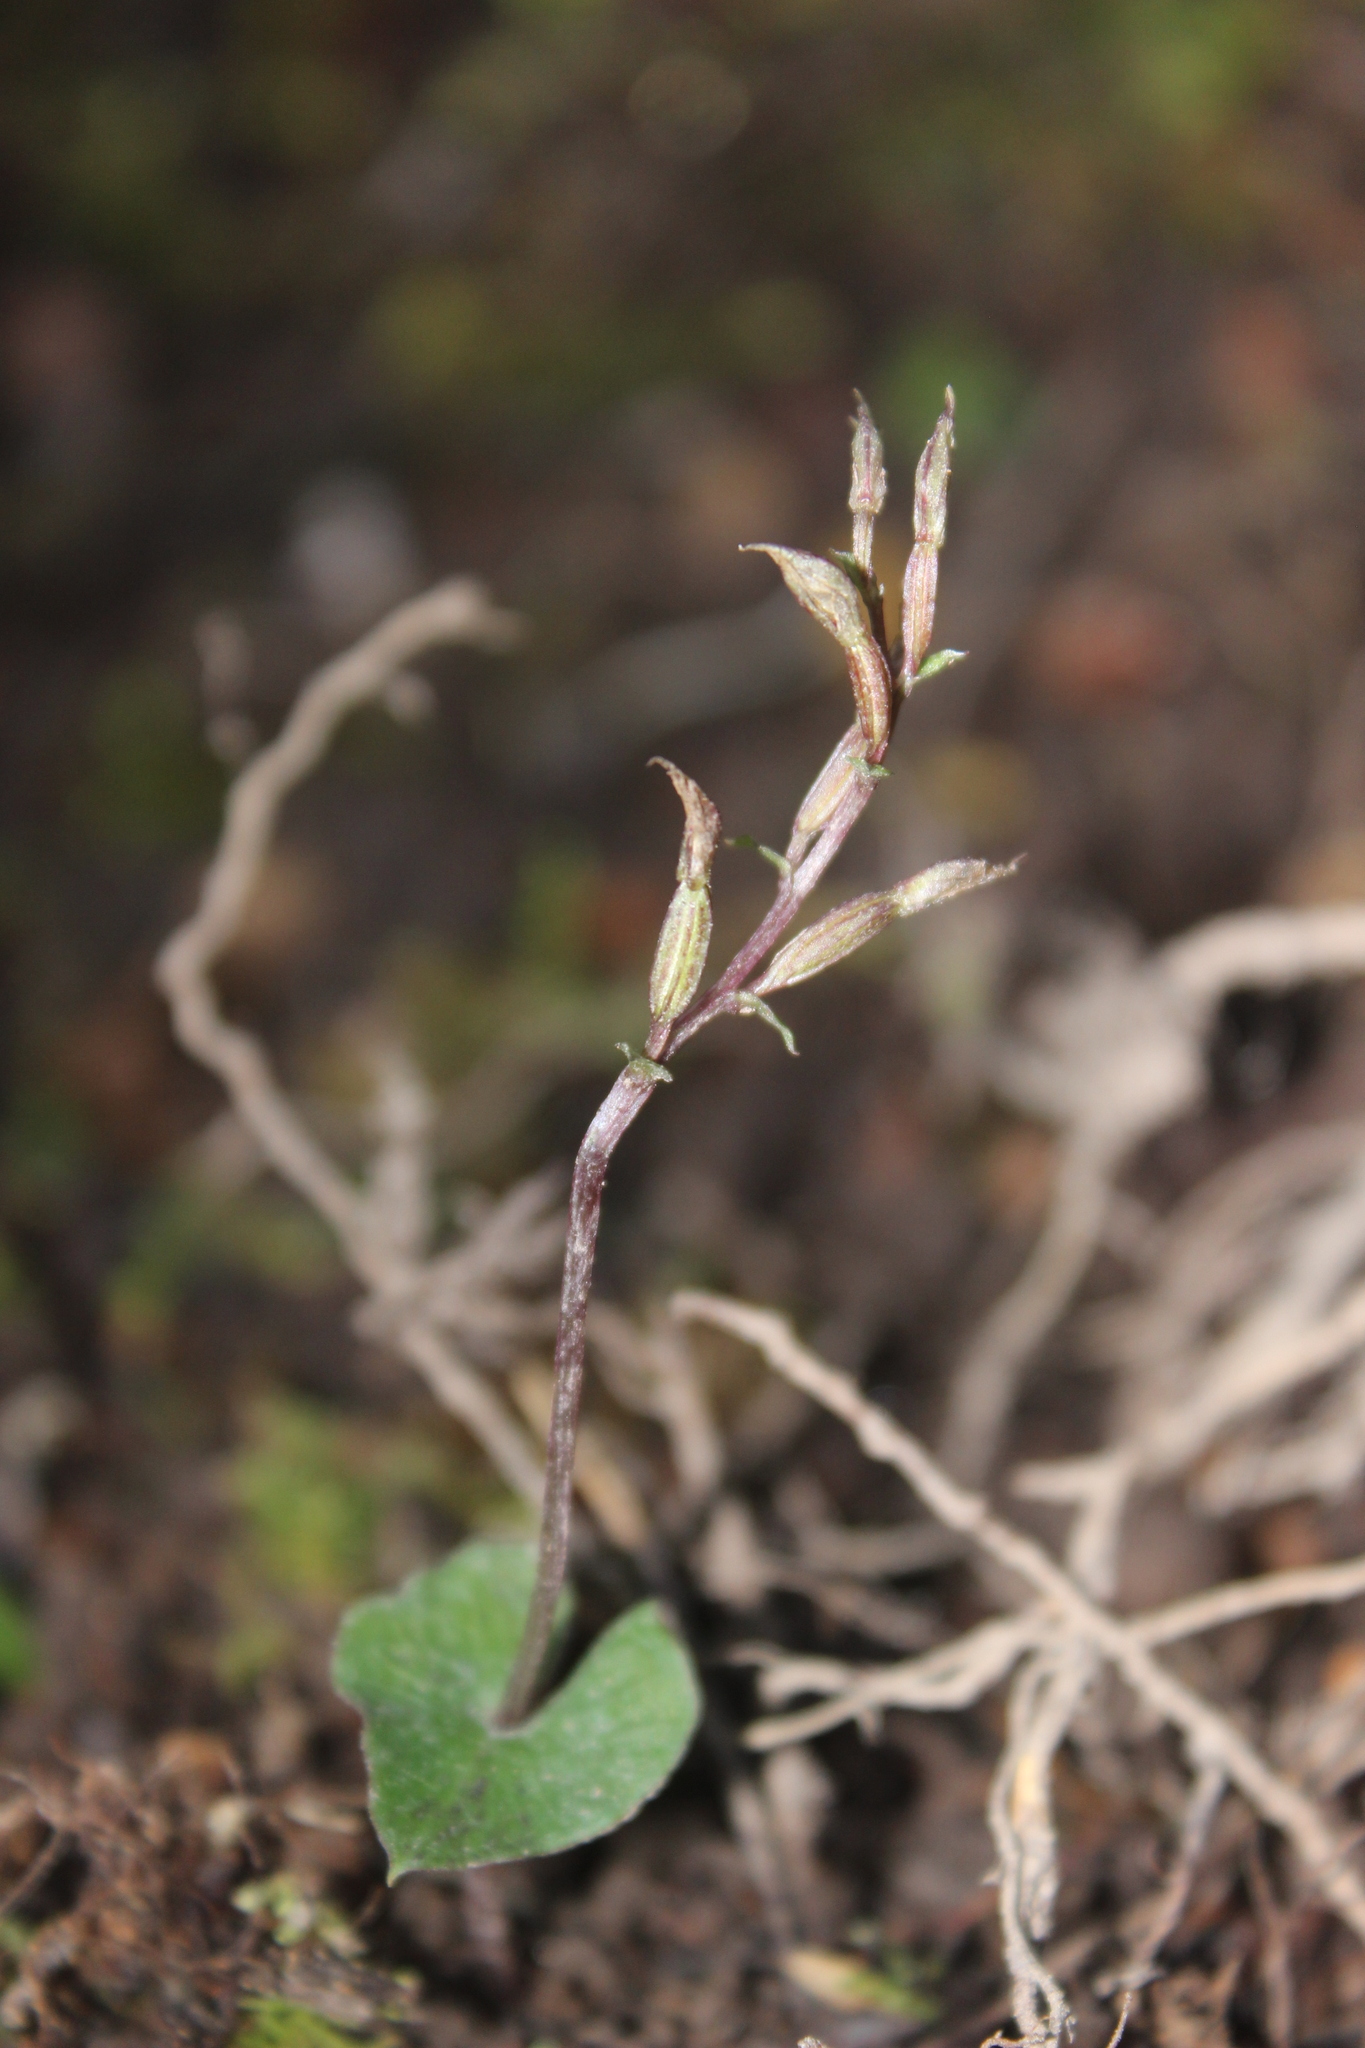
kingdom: Plantae
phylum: Tracheophyta
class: Liliopsida
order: Asparagales
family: Orchidaceae
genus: Acianthus
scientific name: Acianthus sinclairii
